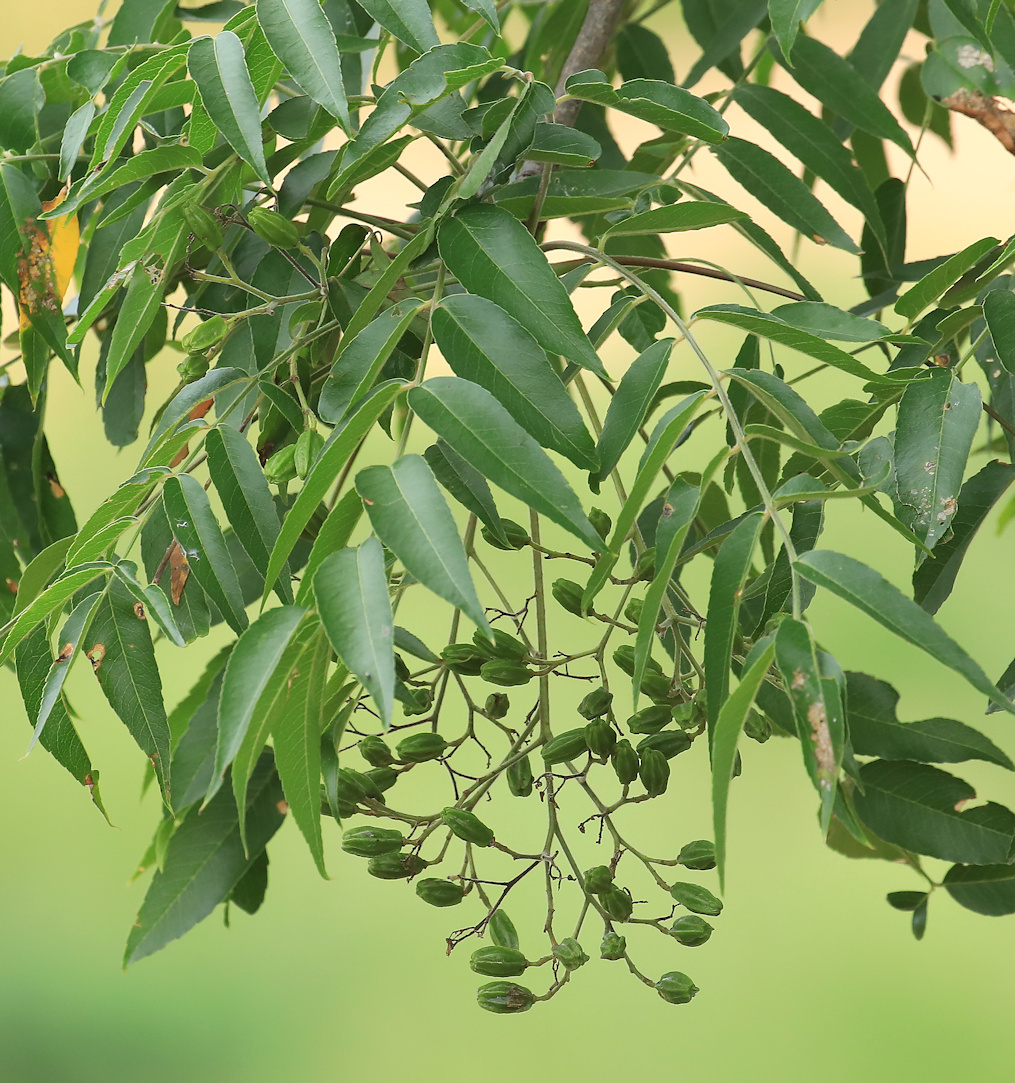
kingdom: Plantae
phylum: Tracheophyta
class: Magnoliopsida
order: Sapindales
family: Kirkiaceae
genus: Kirkia
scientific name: Kirkia acuminata
